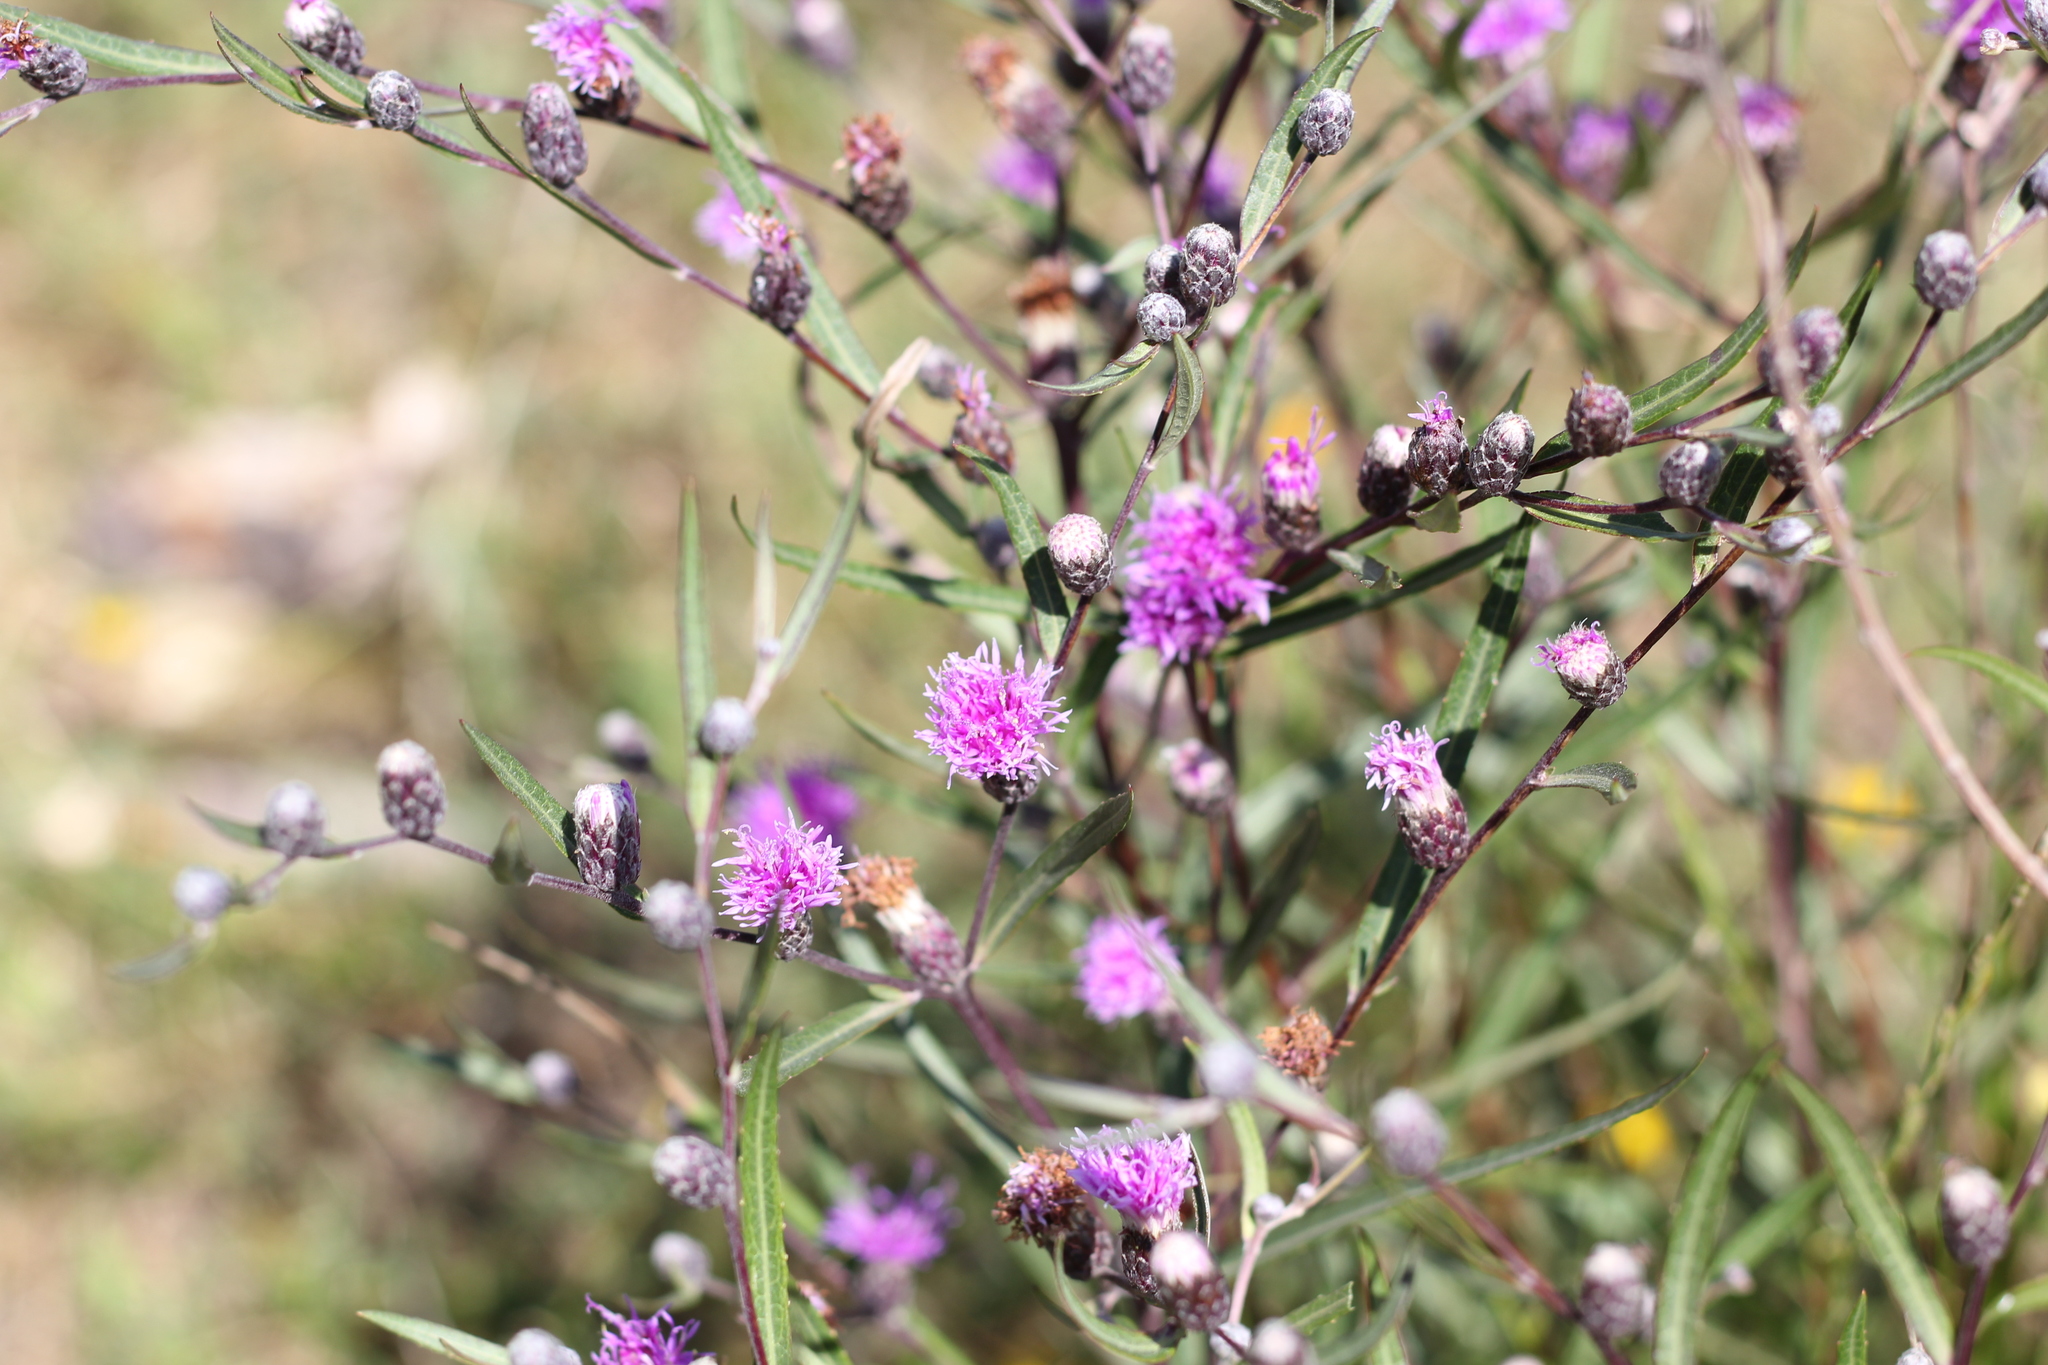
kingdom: Plantae
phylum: Tracheophyta
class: Magnoliopsida
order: Asterales
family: Asteraceae
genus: Lessingianthus
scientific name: Lessingianthus rubricaulis
